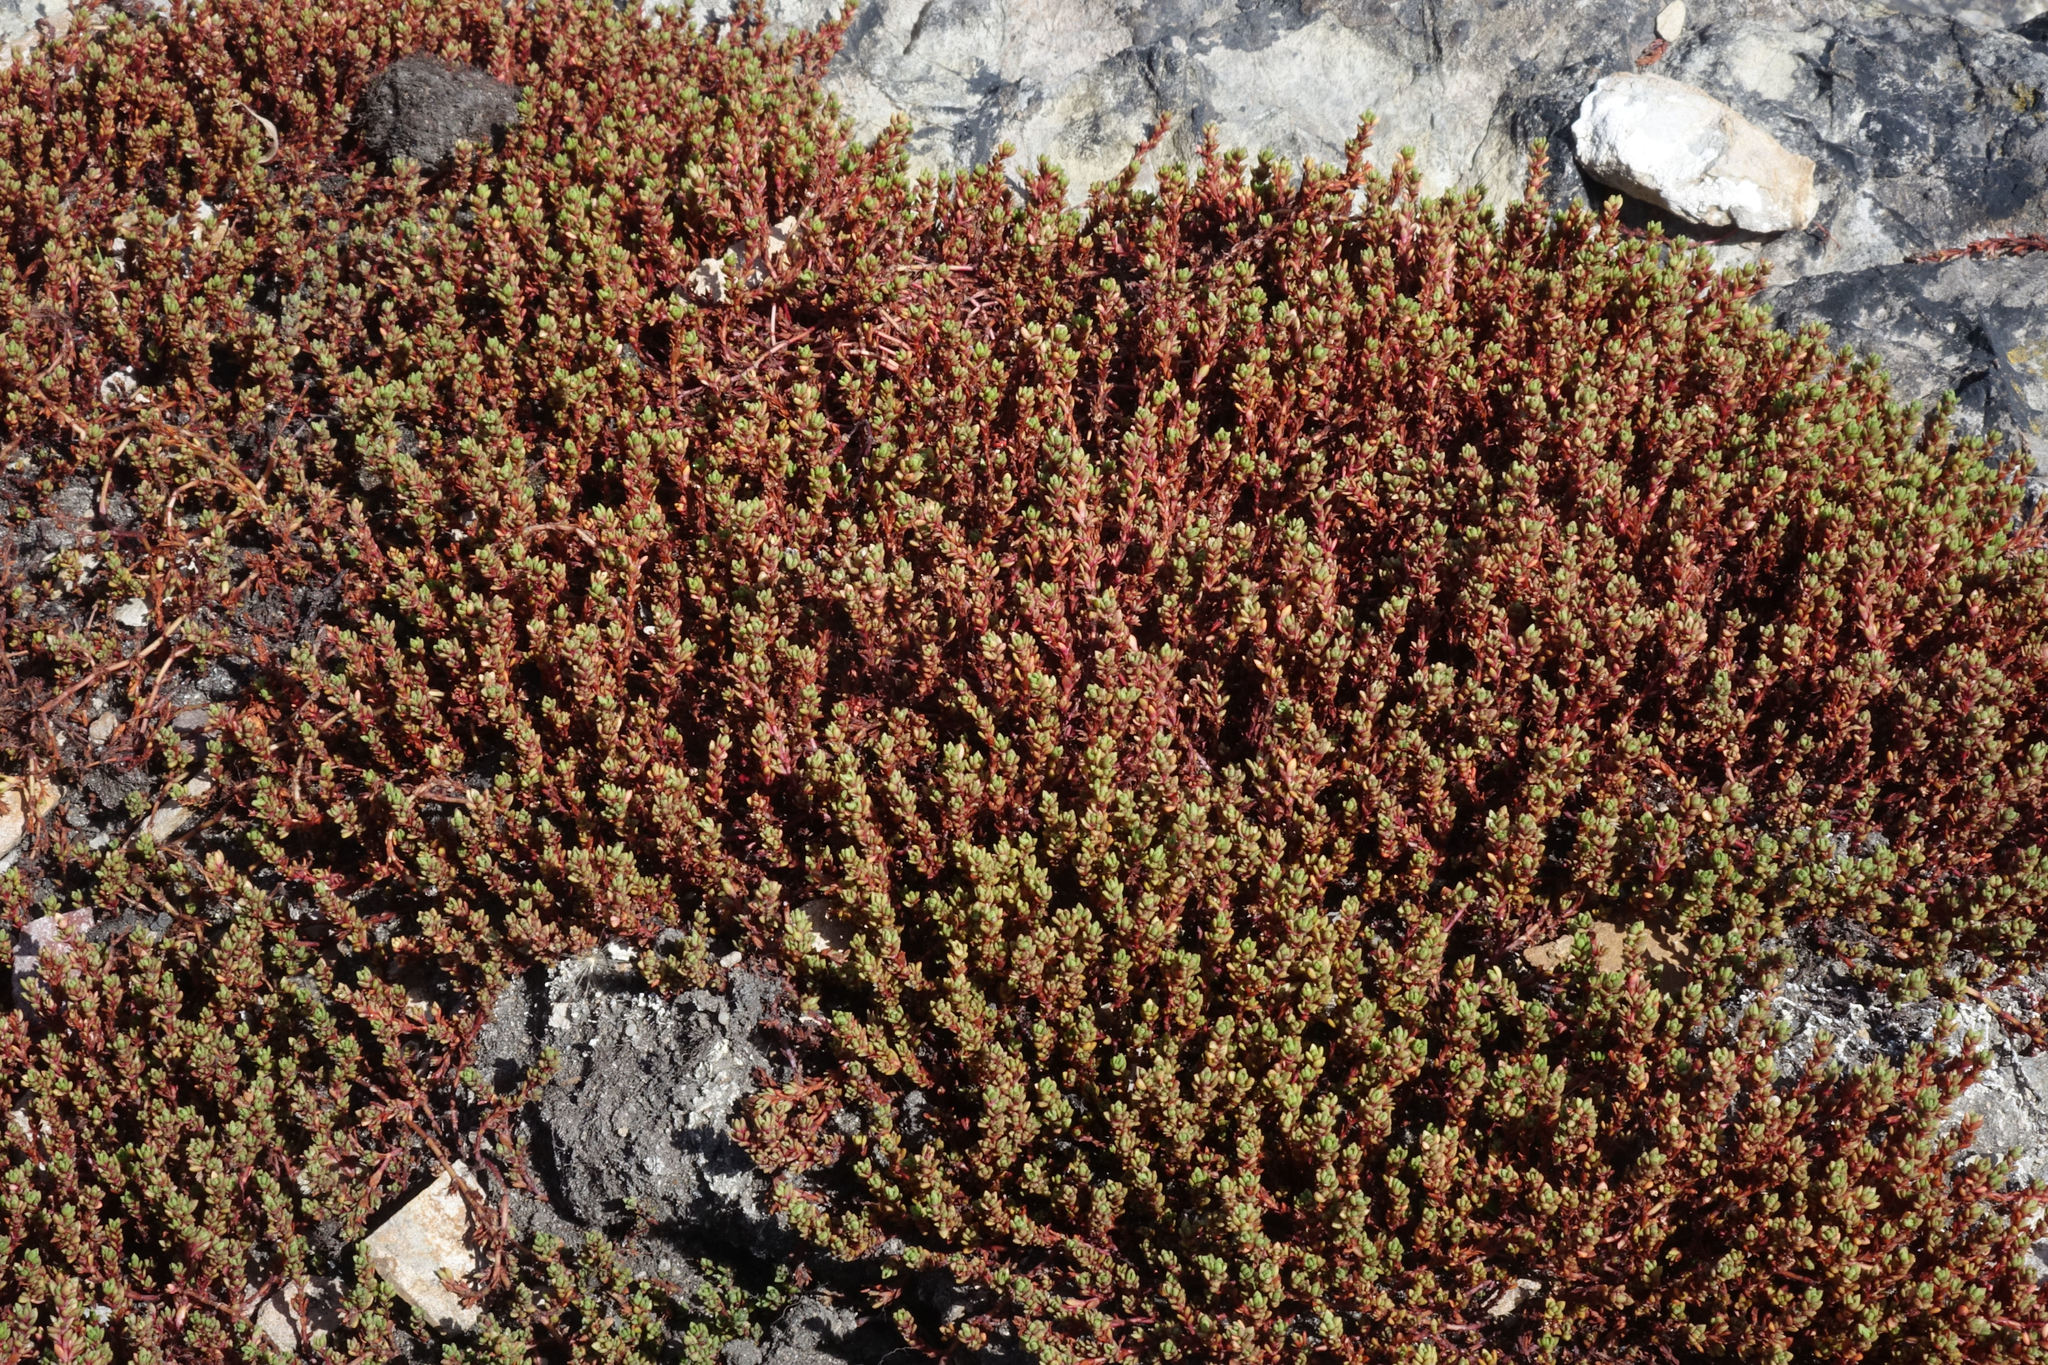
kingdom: Plantae
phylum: Tracheophyta
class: Magnoliopsida
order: Saxifragales
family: Crassulaceae
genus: Crassula
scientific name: Crassula moschata
